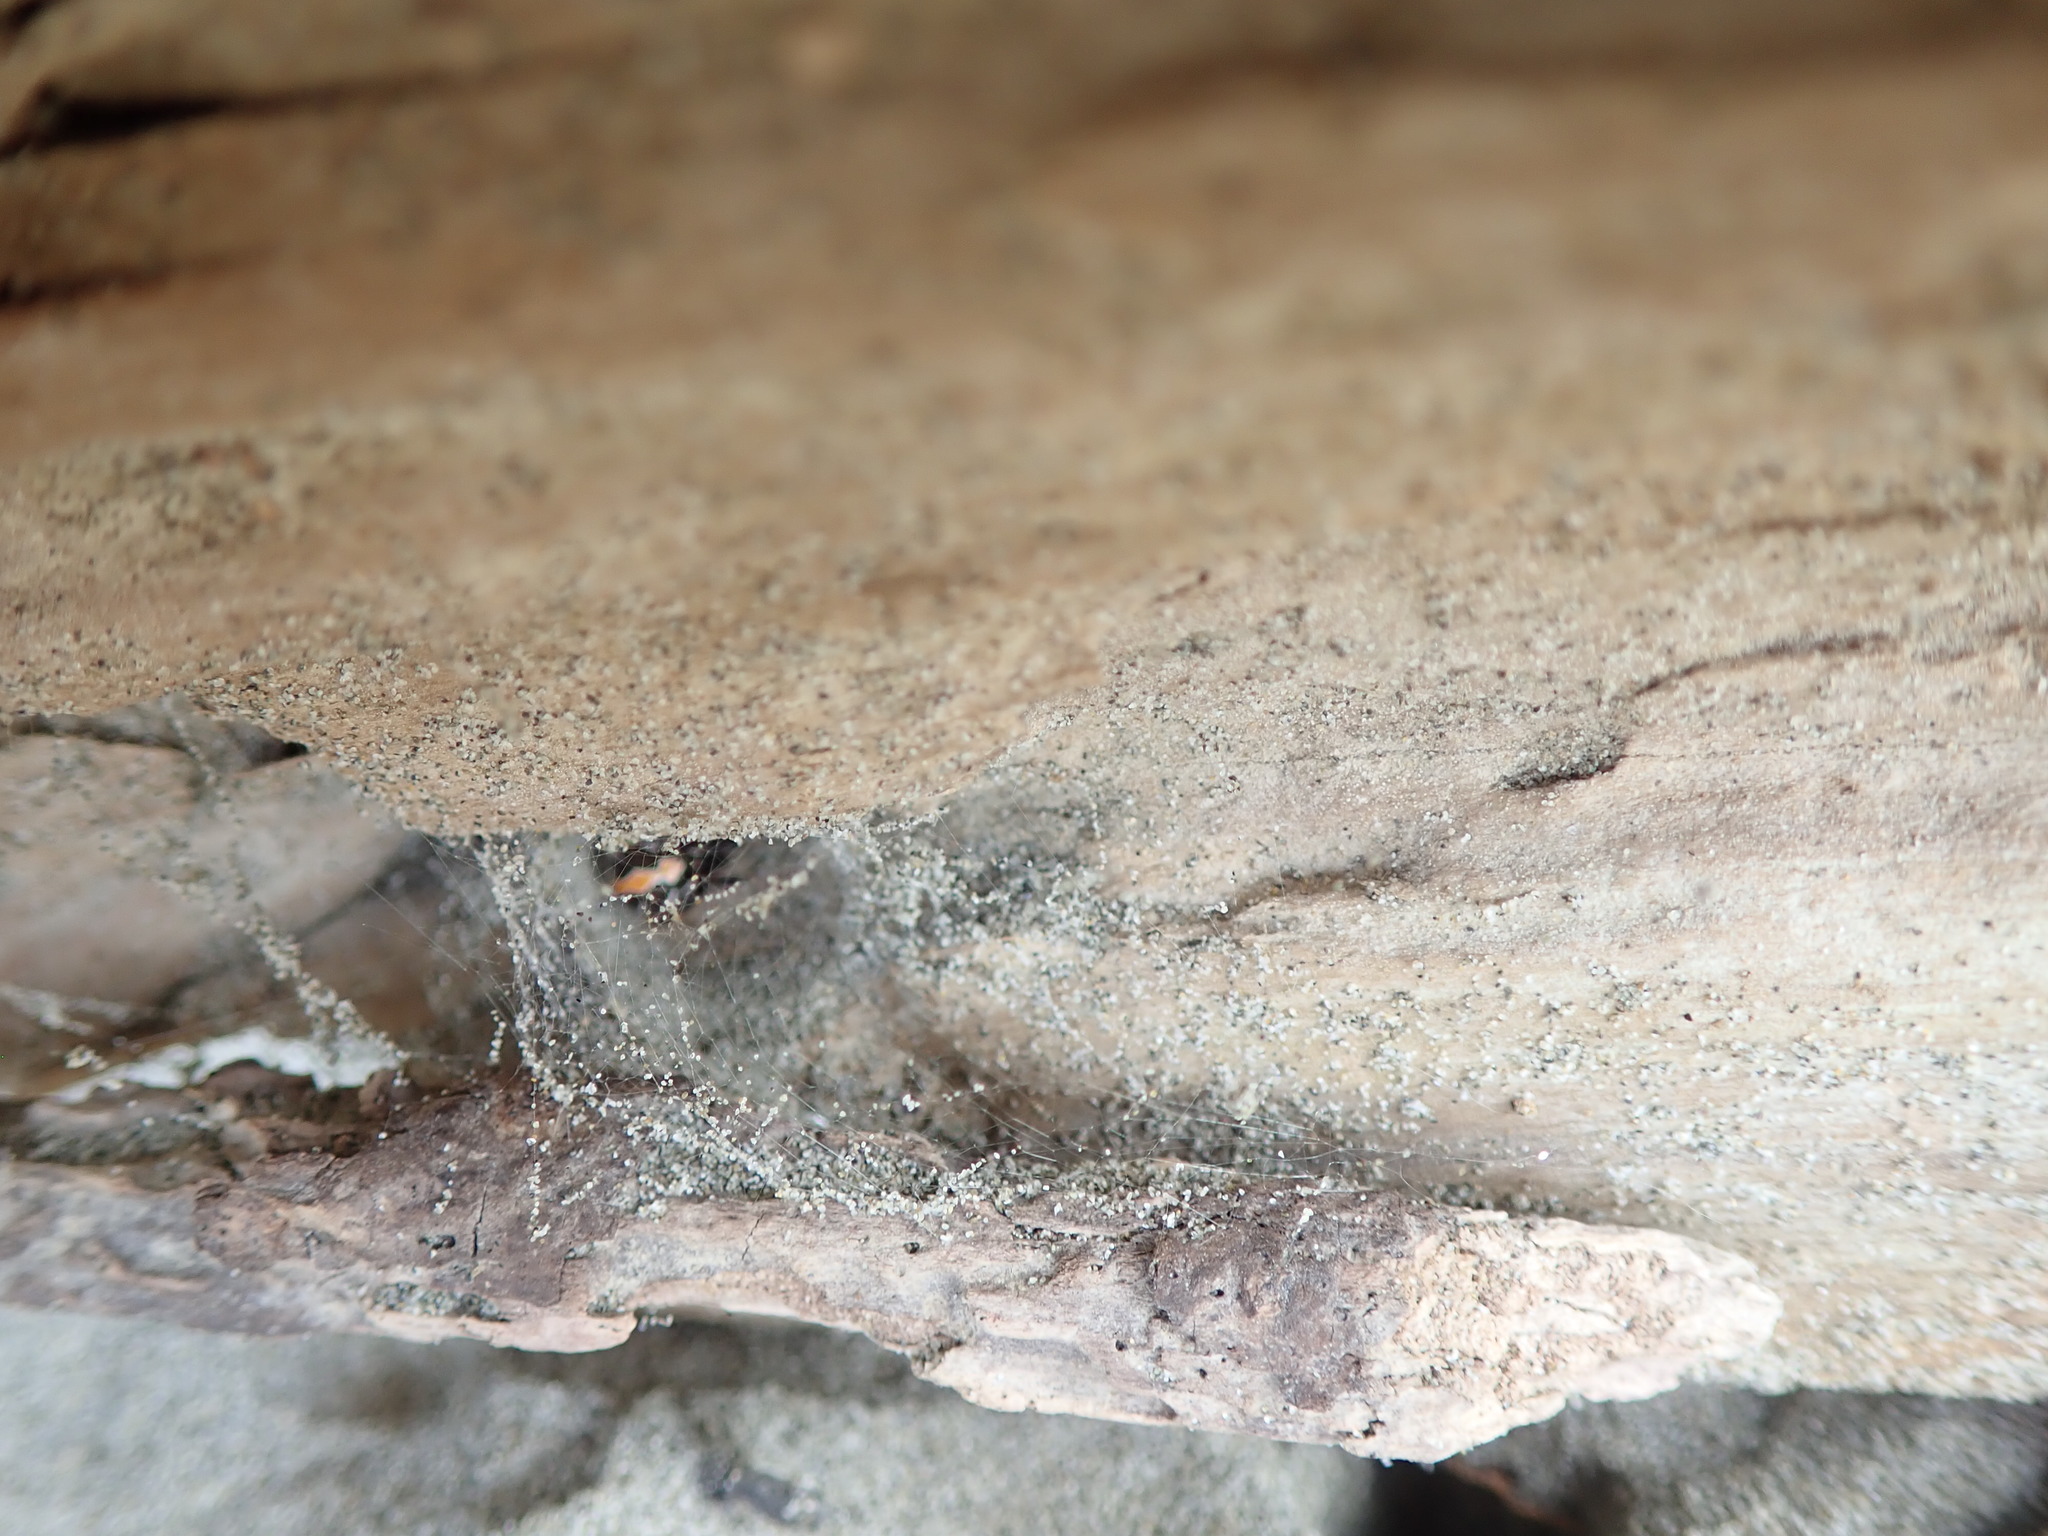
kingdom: Animalia
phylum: Arthropoda
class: Arachnida
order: Araneae
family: Theridiidae
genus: Latrodectus
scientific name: Latrodectus katipo
